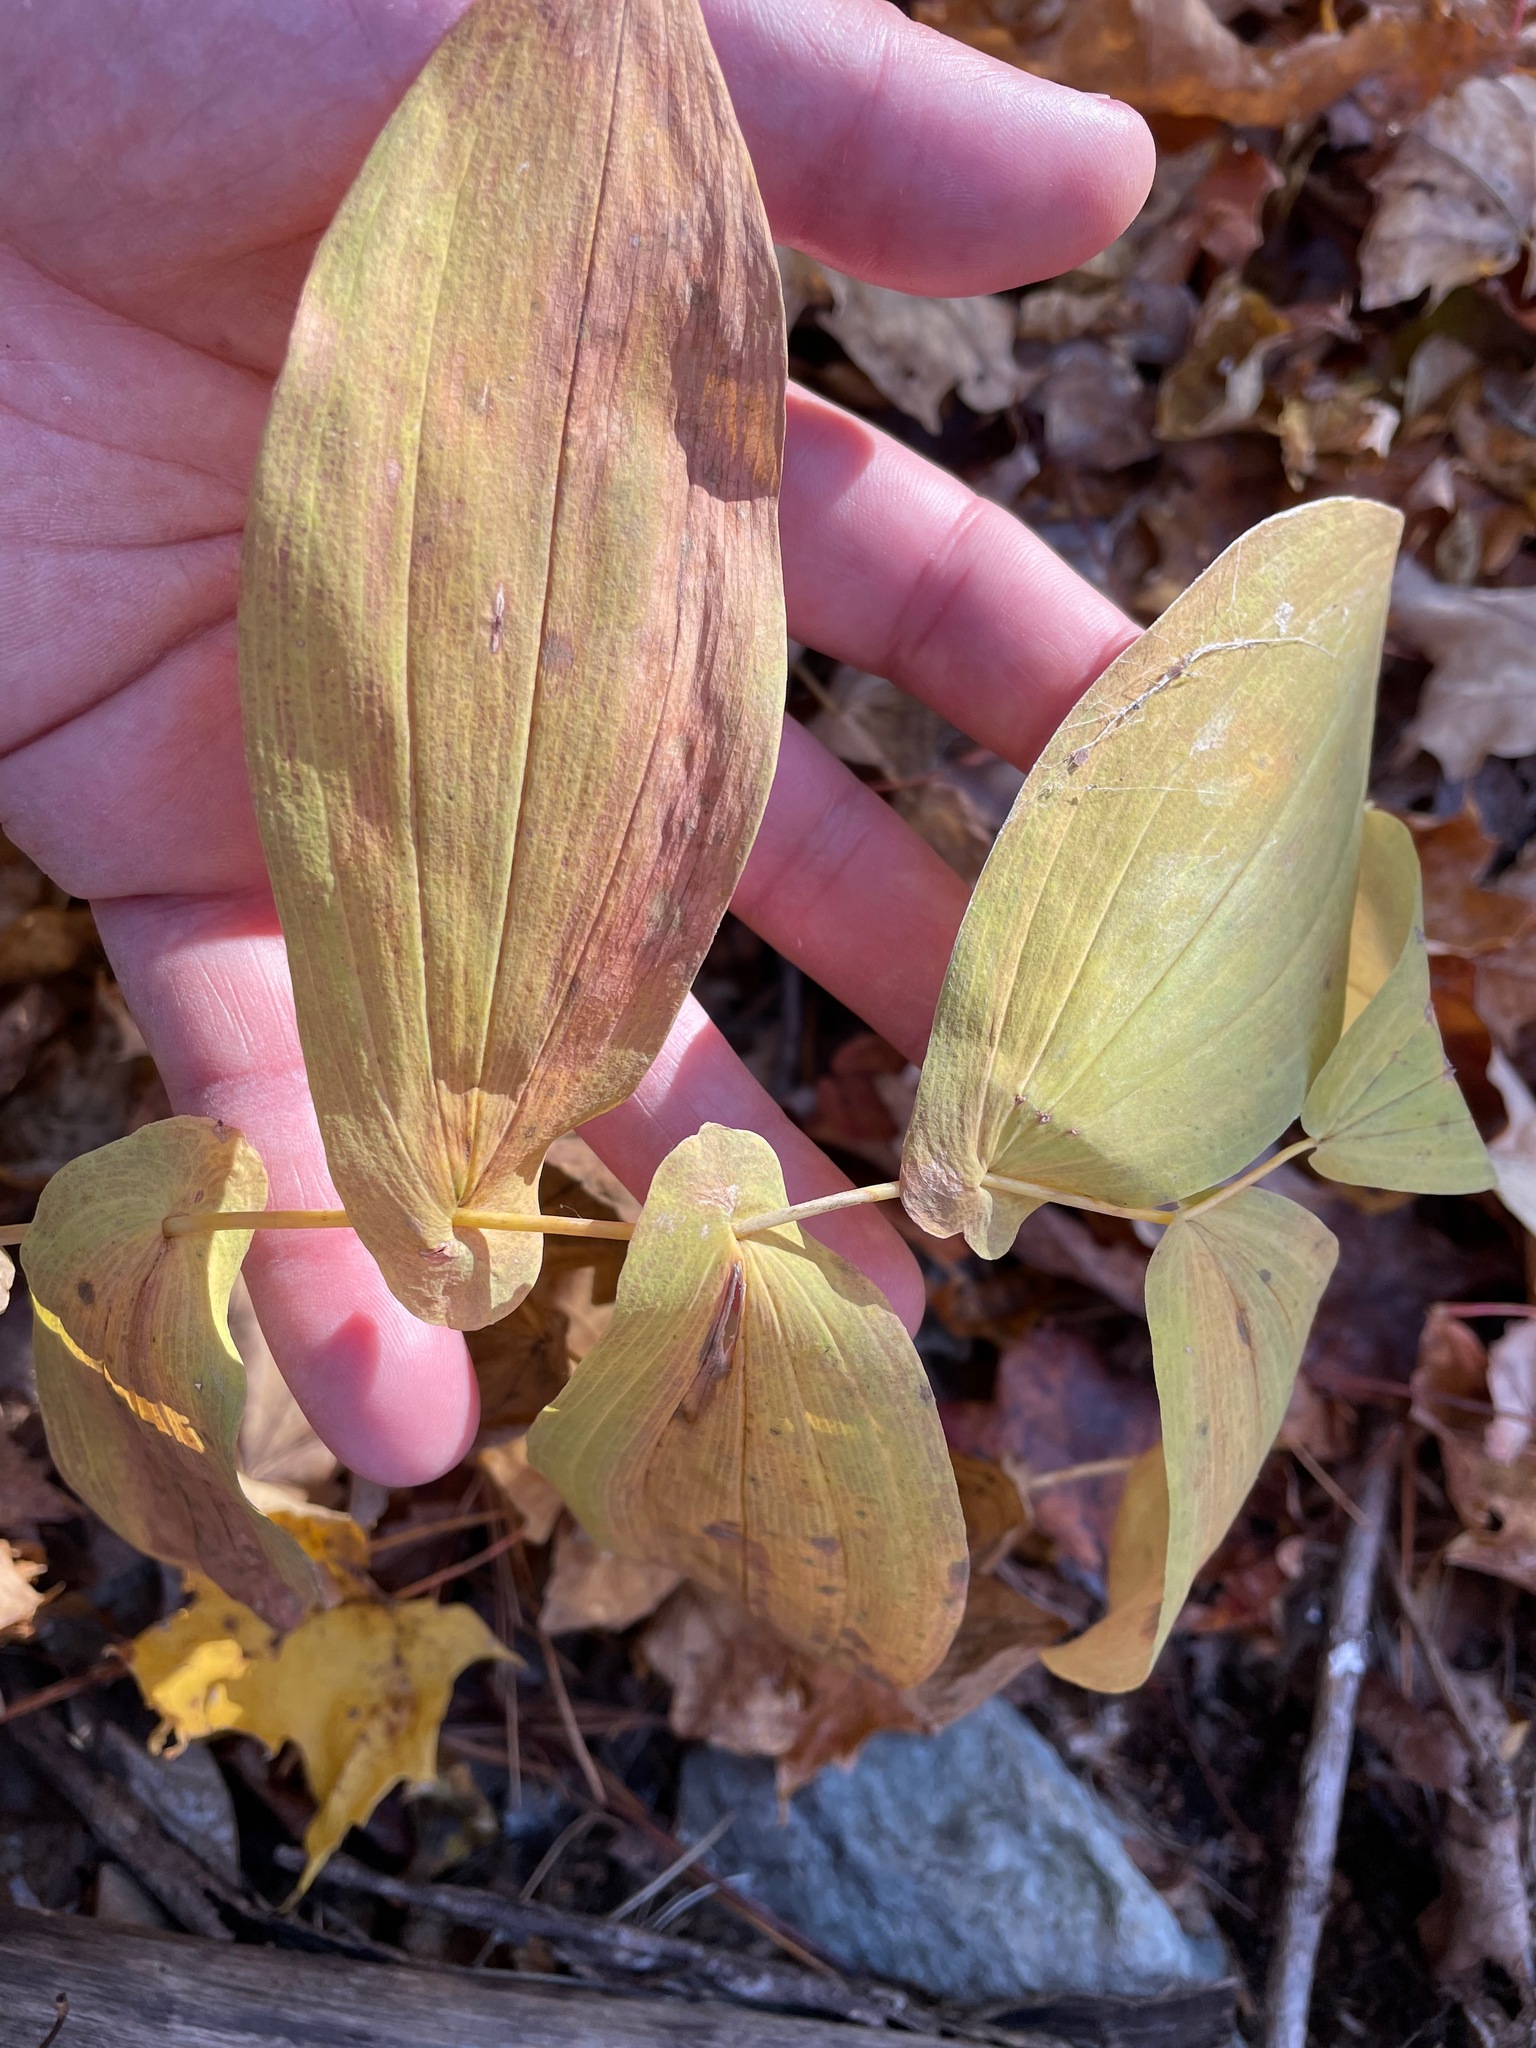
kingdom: Plantae
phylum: Tracheophyta
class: Liliopsida
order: Liliales
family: Colchicaceae
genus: Uvularia
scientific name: Uvularia grandiflora
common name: Bellwort
